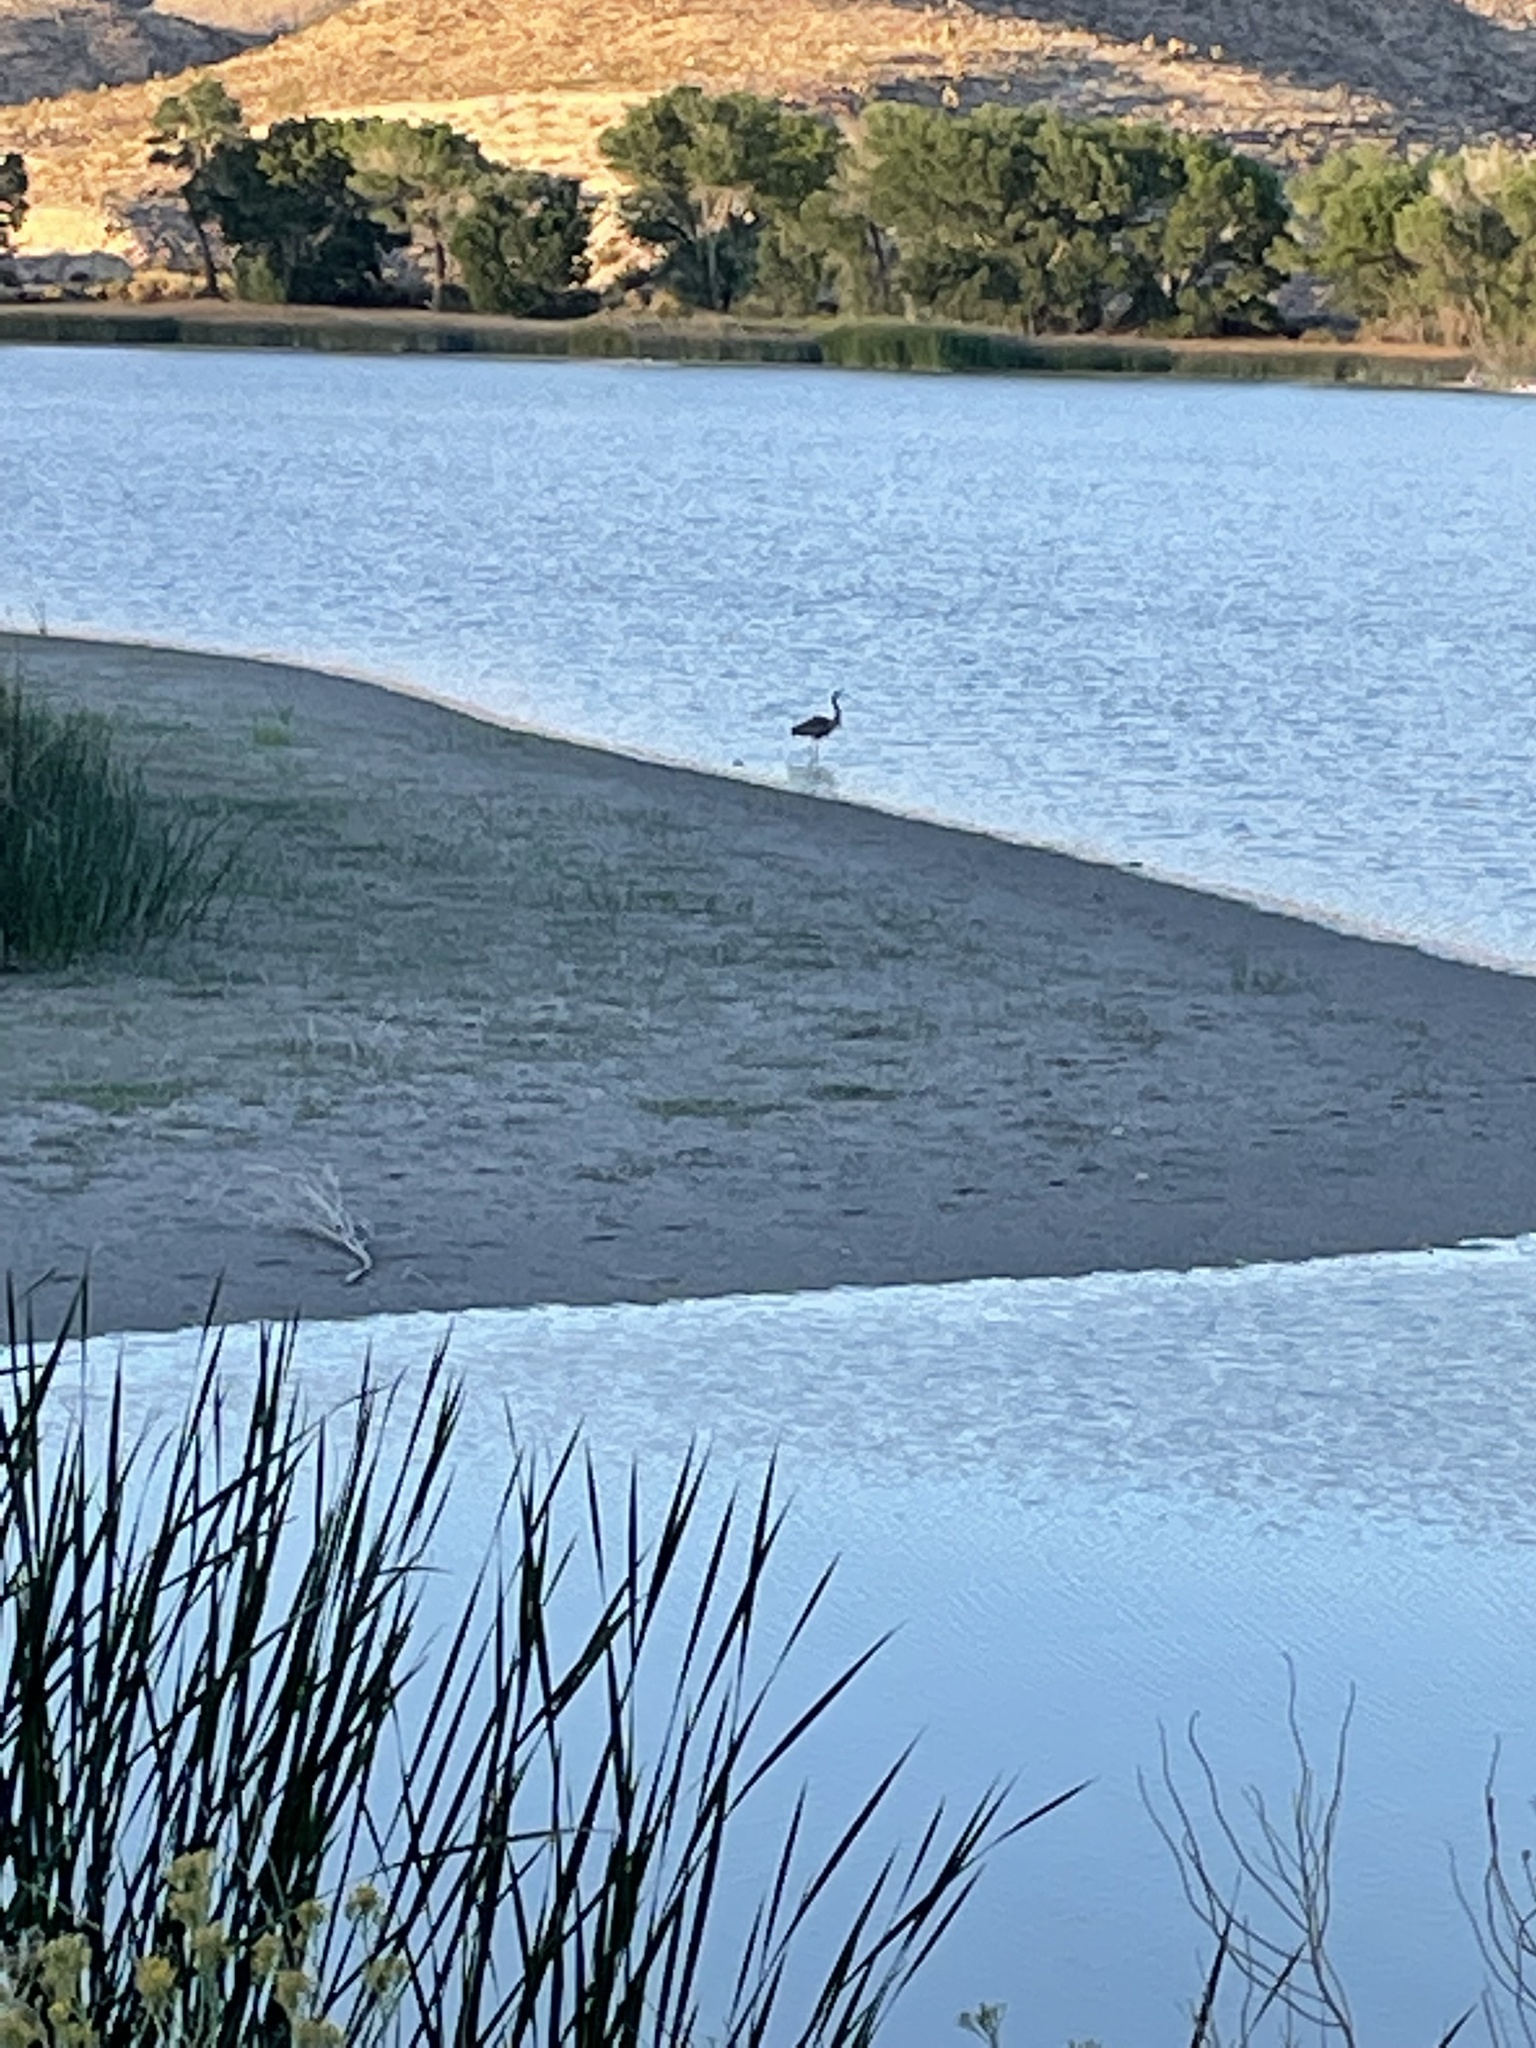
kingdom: Animalia
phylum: Chordata
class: Aves
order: Pelecaniformes
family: Ardeidae
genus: Ardea
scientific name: Ardea herodias
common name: Great blue heron
